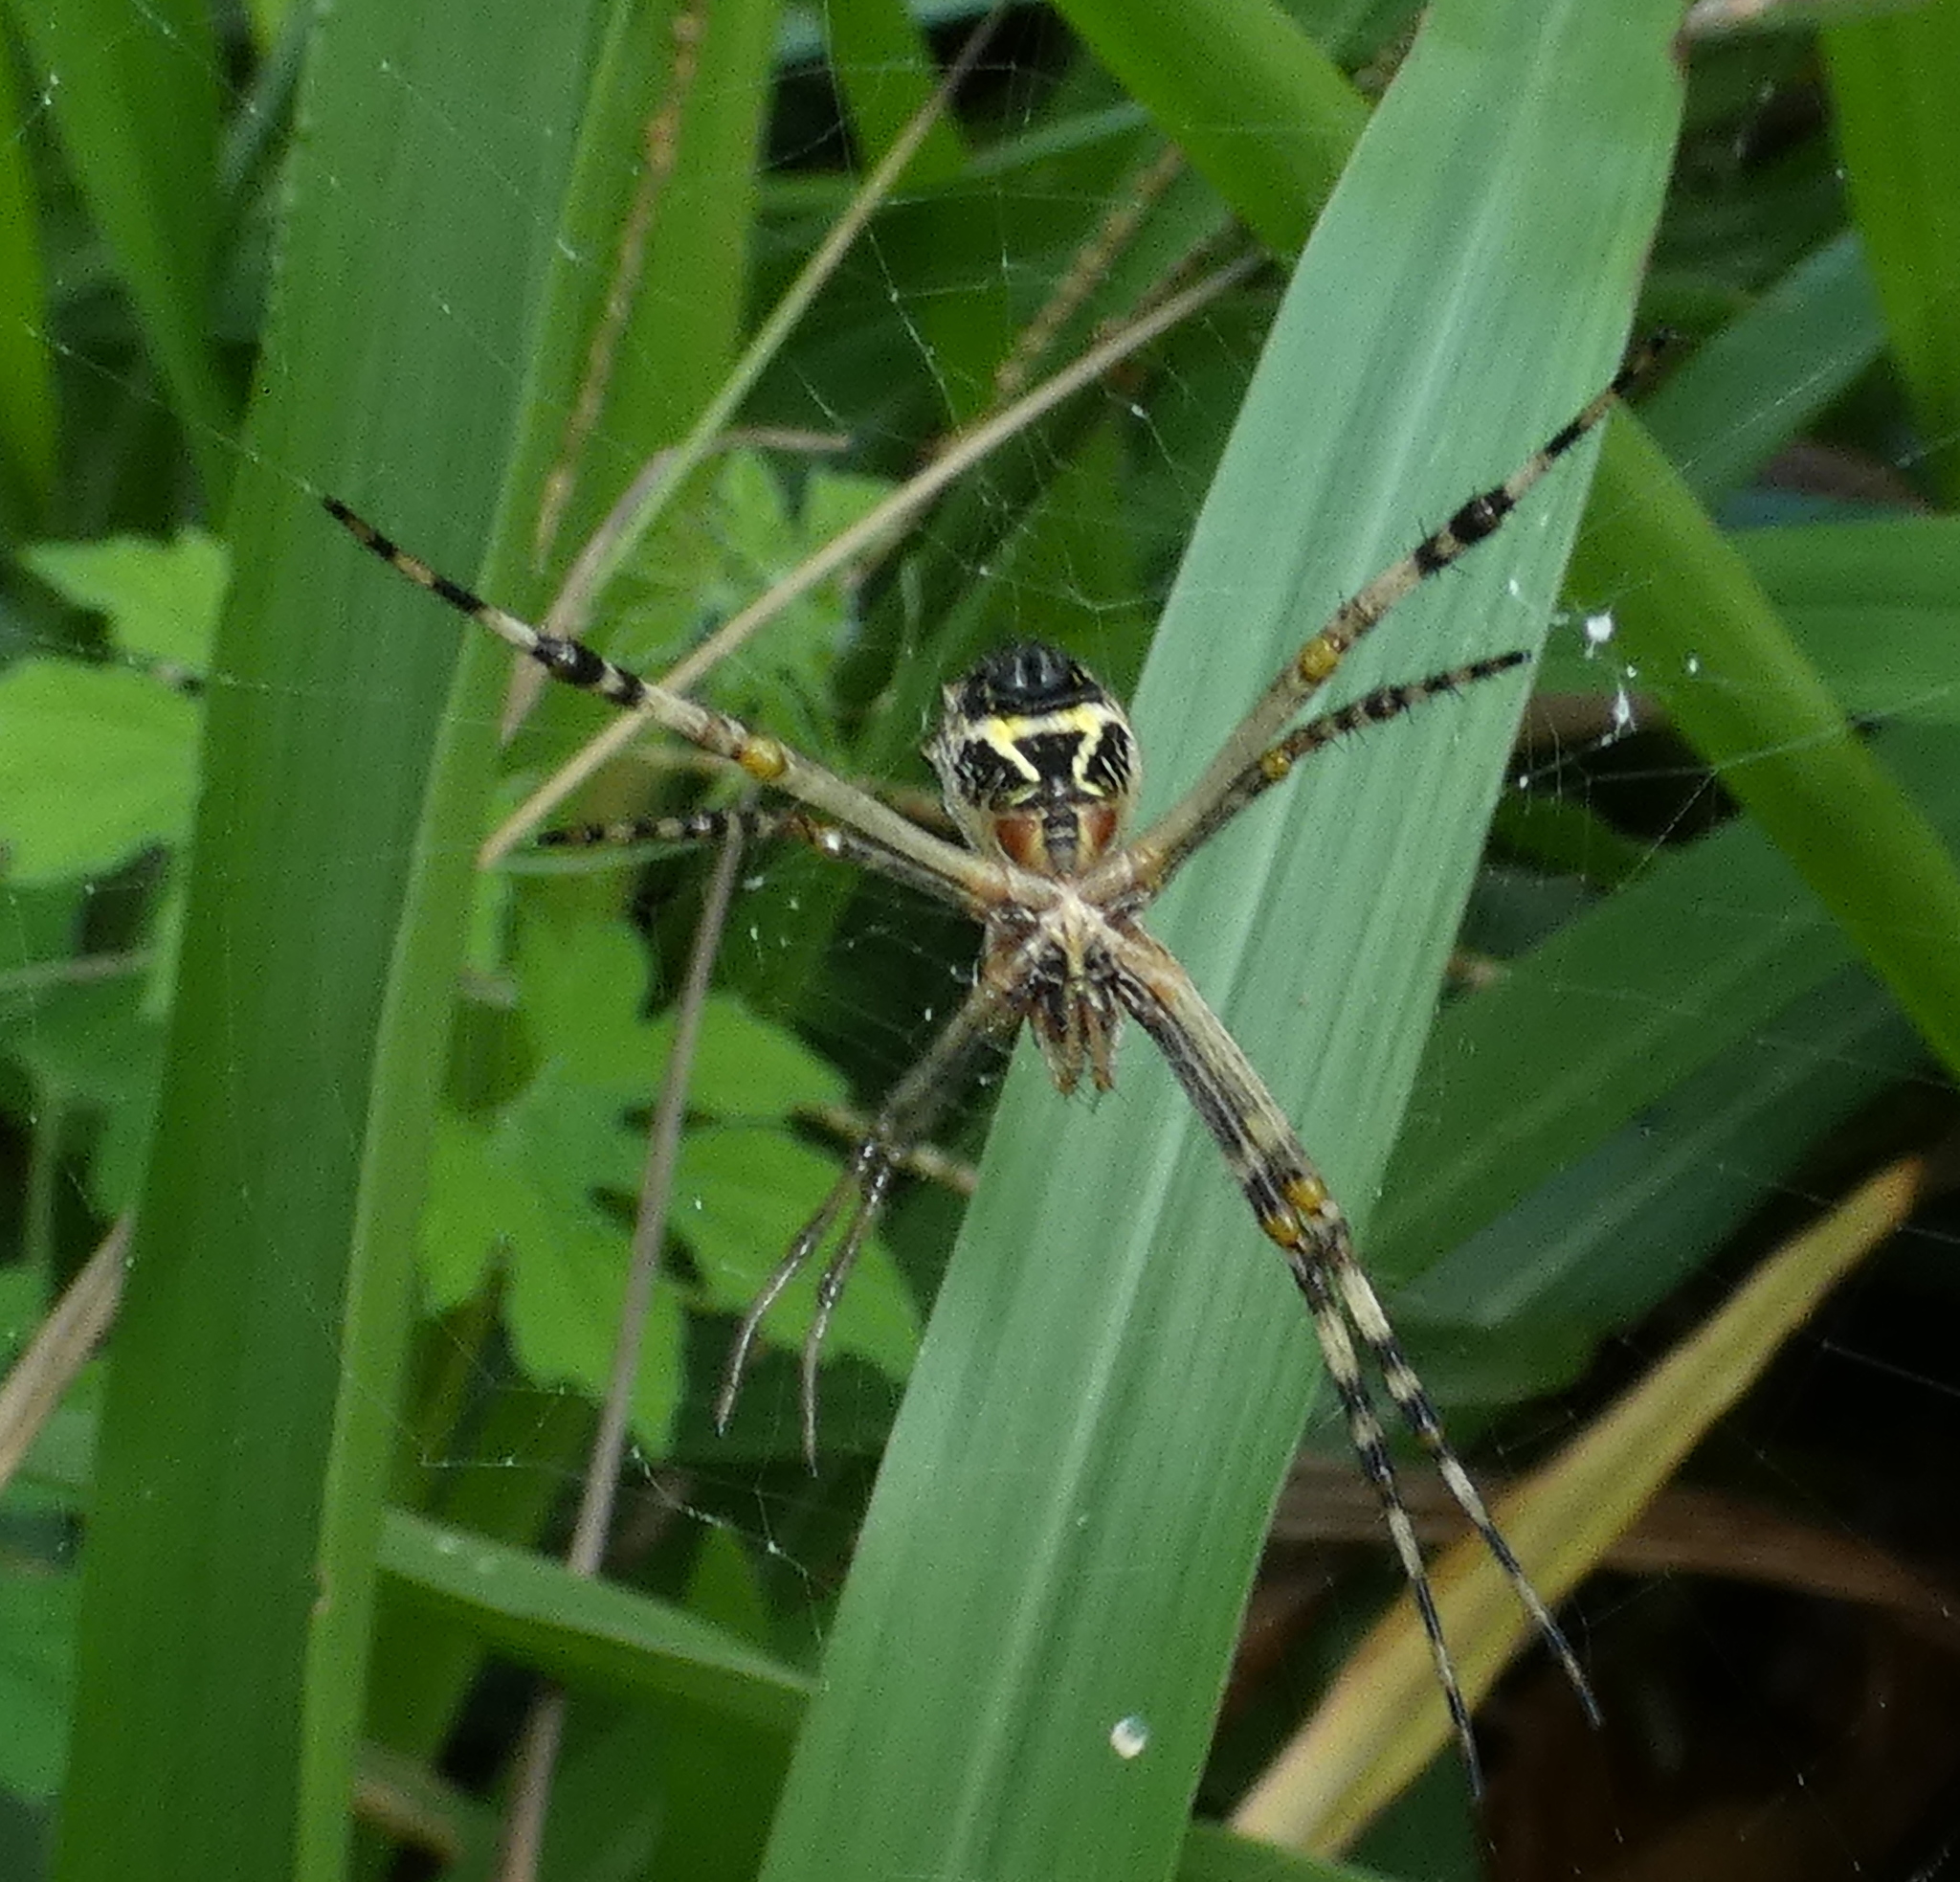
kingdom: Animalia
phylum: Arthropoda
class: Arachnida
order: Araneae
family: Araneidae
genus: Argiope
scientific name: Argiope argentata
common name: Orb weavers
